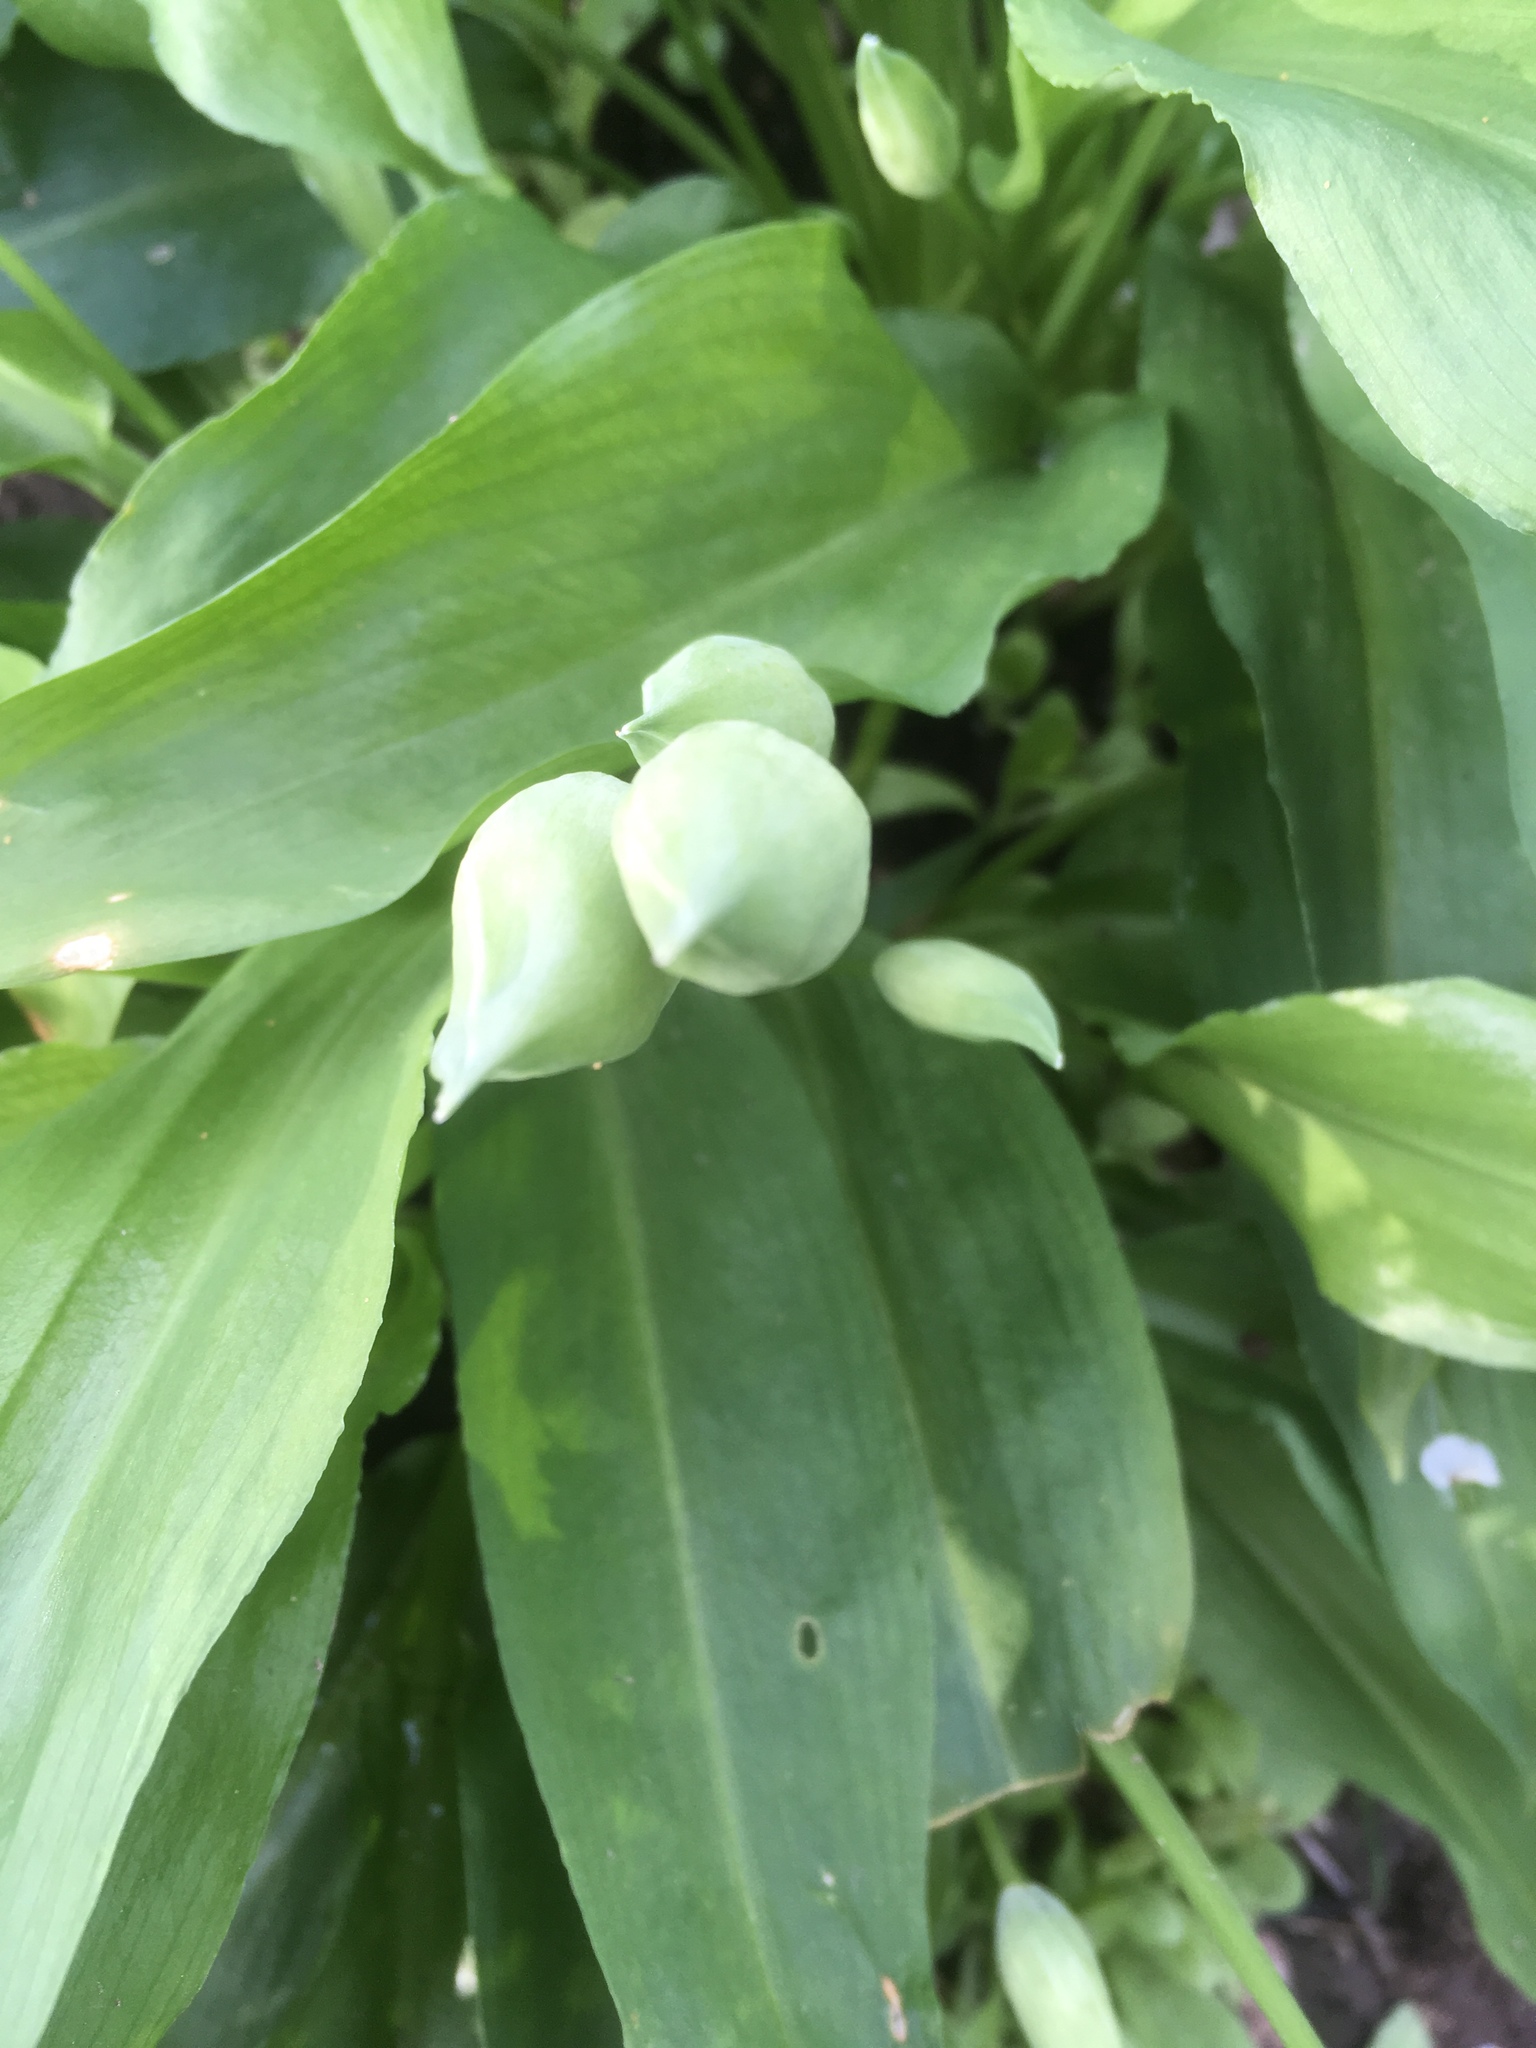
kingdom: Plantae
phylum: Tracheophyta
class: Liliopsida
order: Asparagales
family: Amaryllidaceae
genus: Allium
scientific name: Allium ursinum
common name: Ramsons
